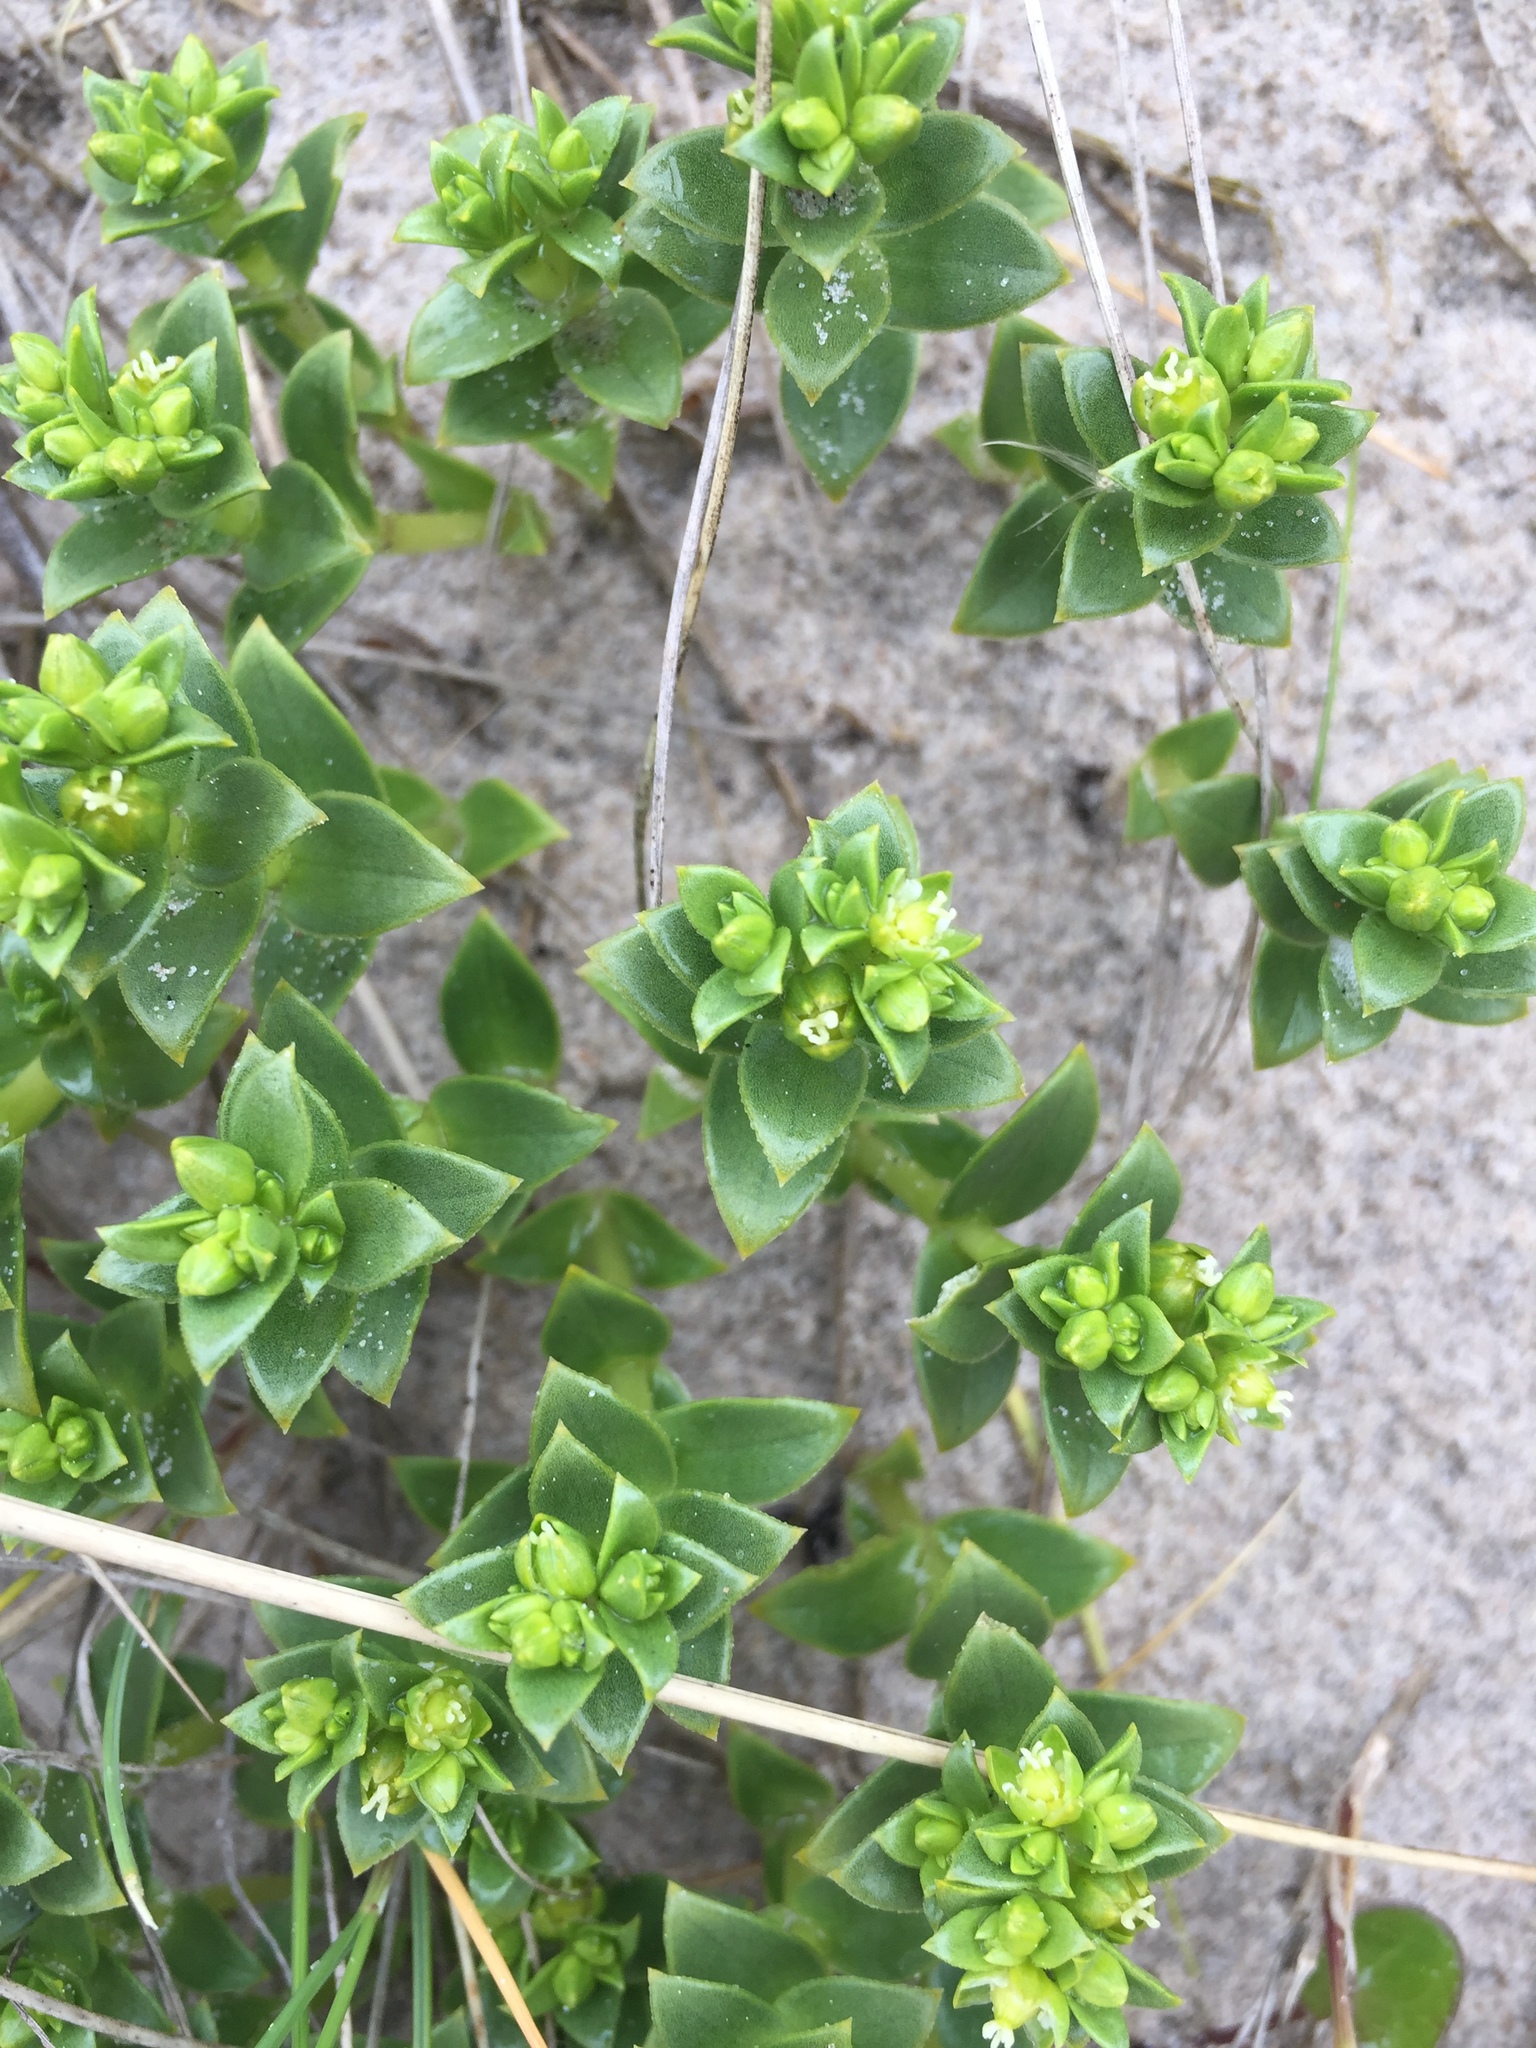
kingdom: Plantae
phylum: Tracheophyta
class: Magnoliopsida
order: Caryophyllales
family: Caryophyllaceae
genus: Honckenya
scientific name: Honckenya peploides
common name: Sea sandwort
